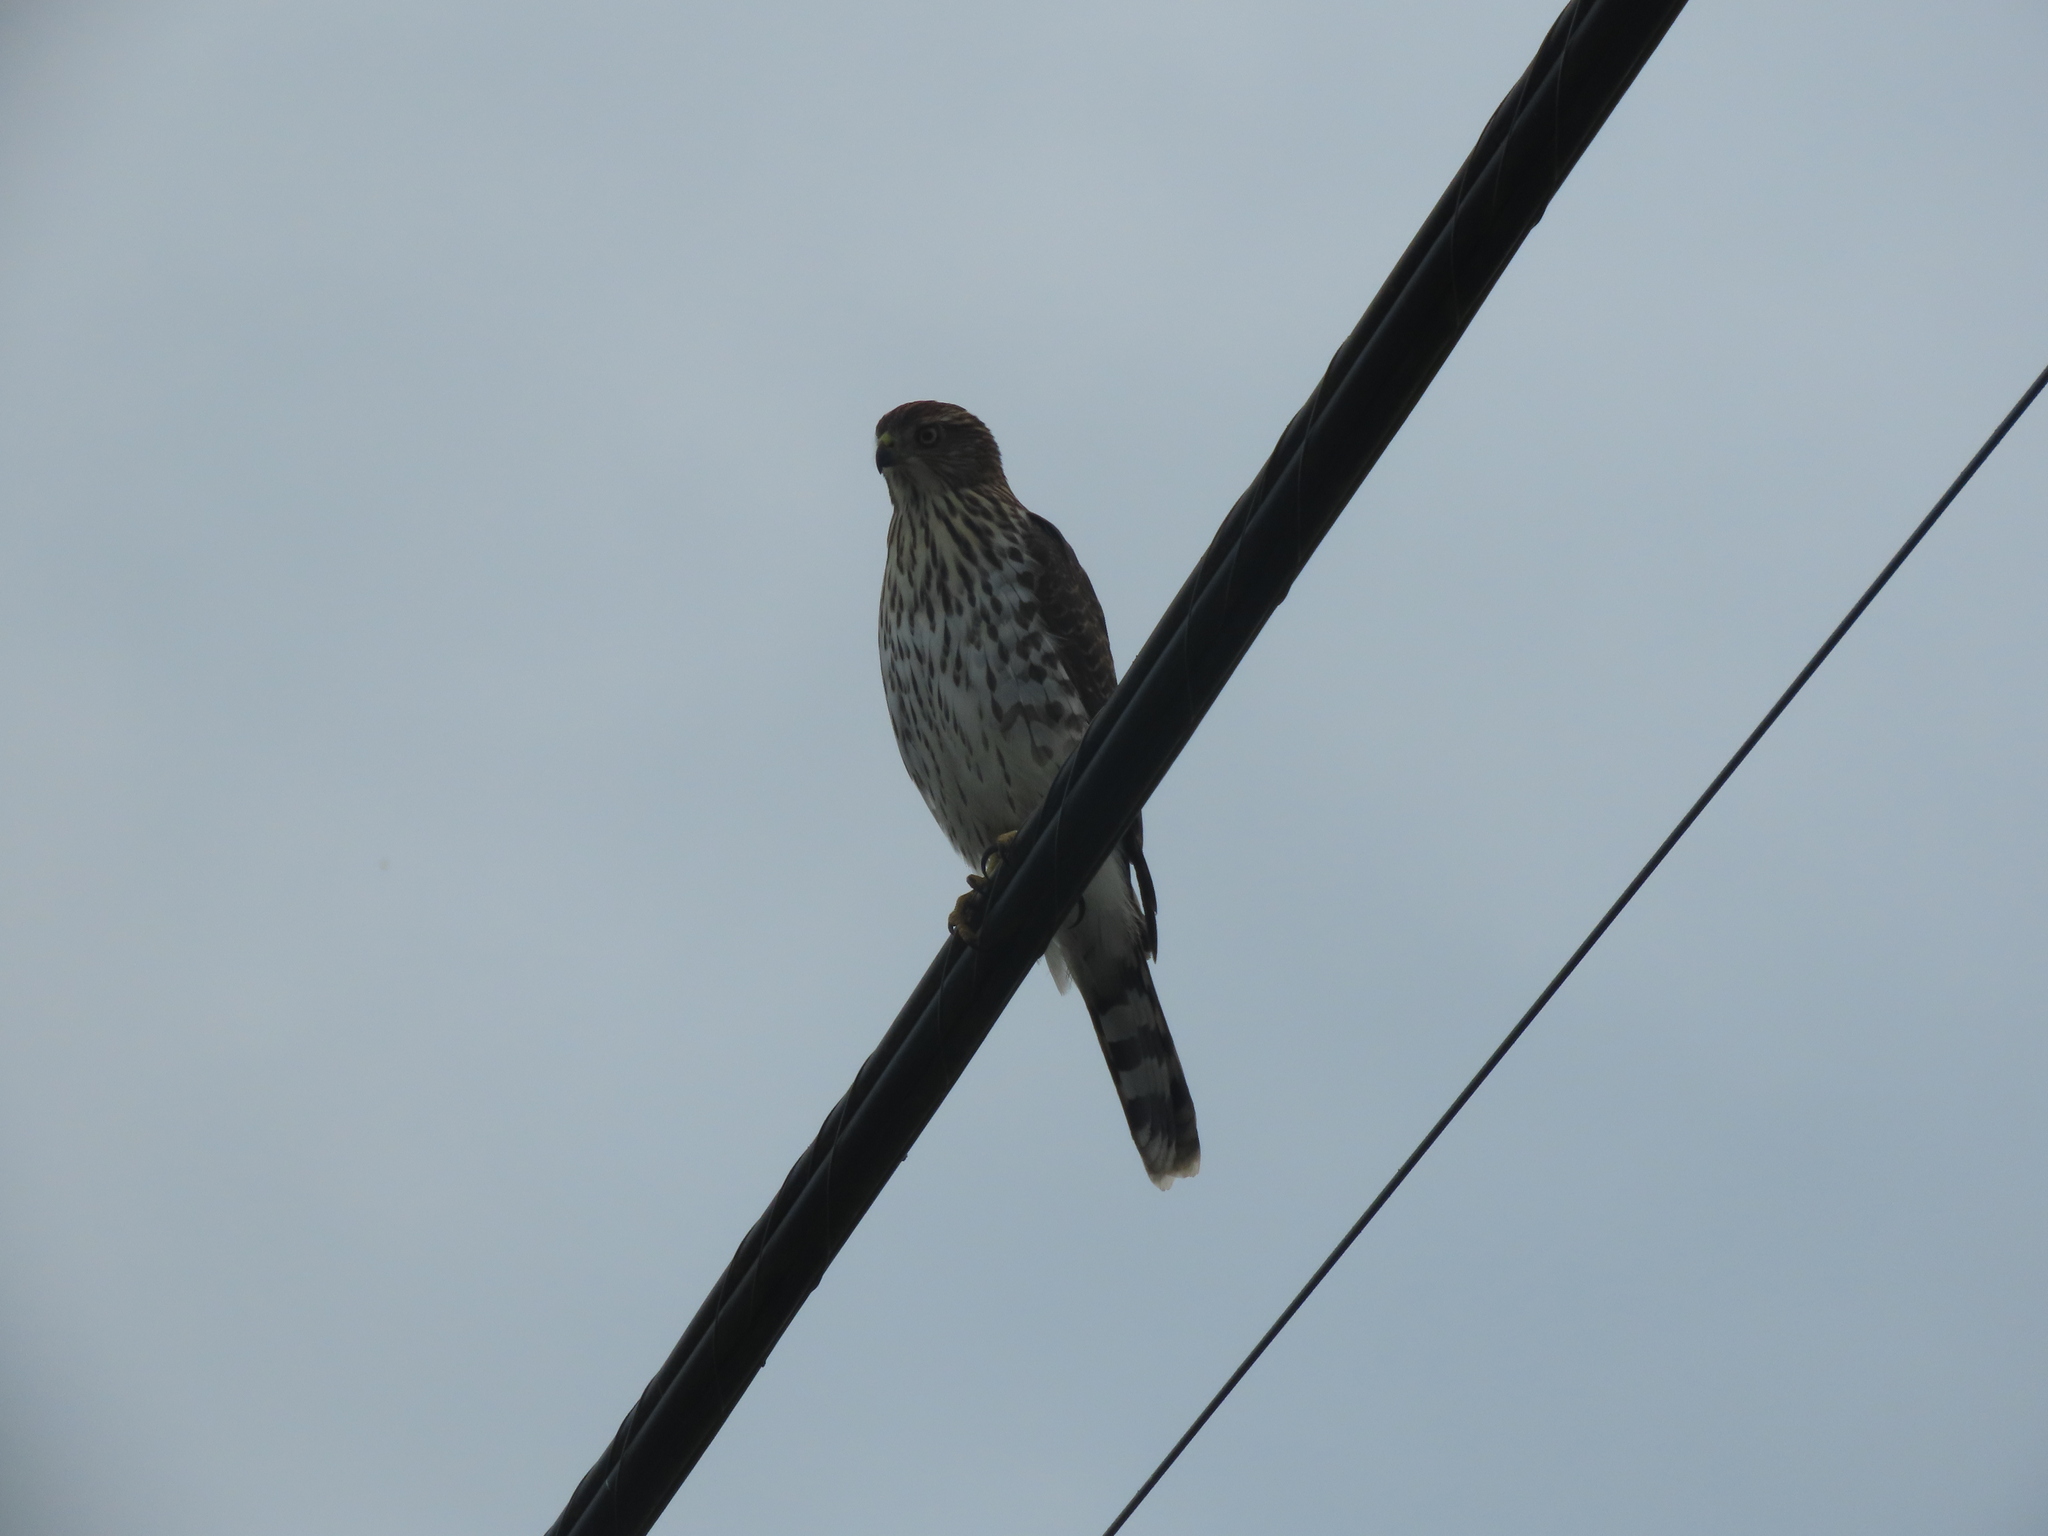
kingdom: Animalia
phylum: Chordata
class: Aves
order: Accipitriformes
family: Accipitridae
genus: Accipiter
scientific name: Accipiter cooperii
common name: Cooper's hawk
